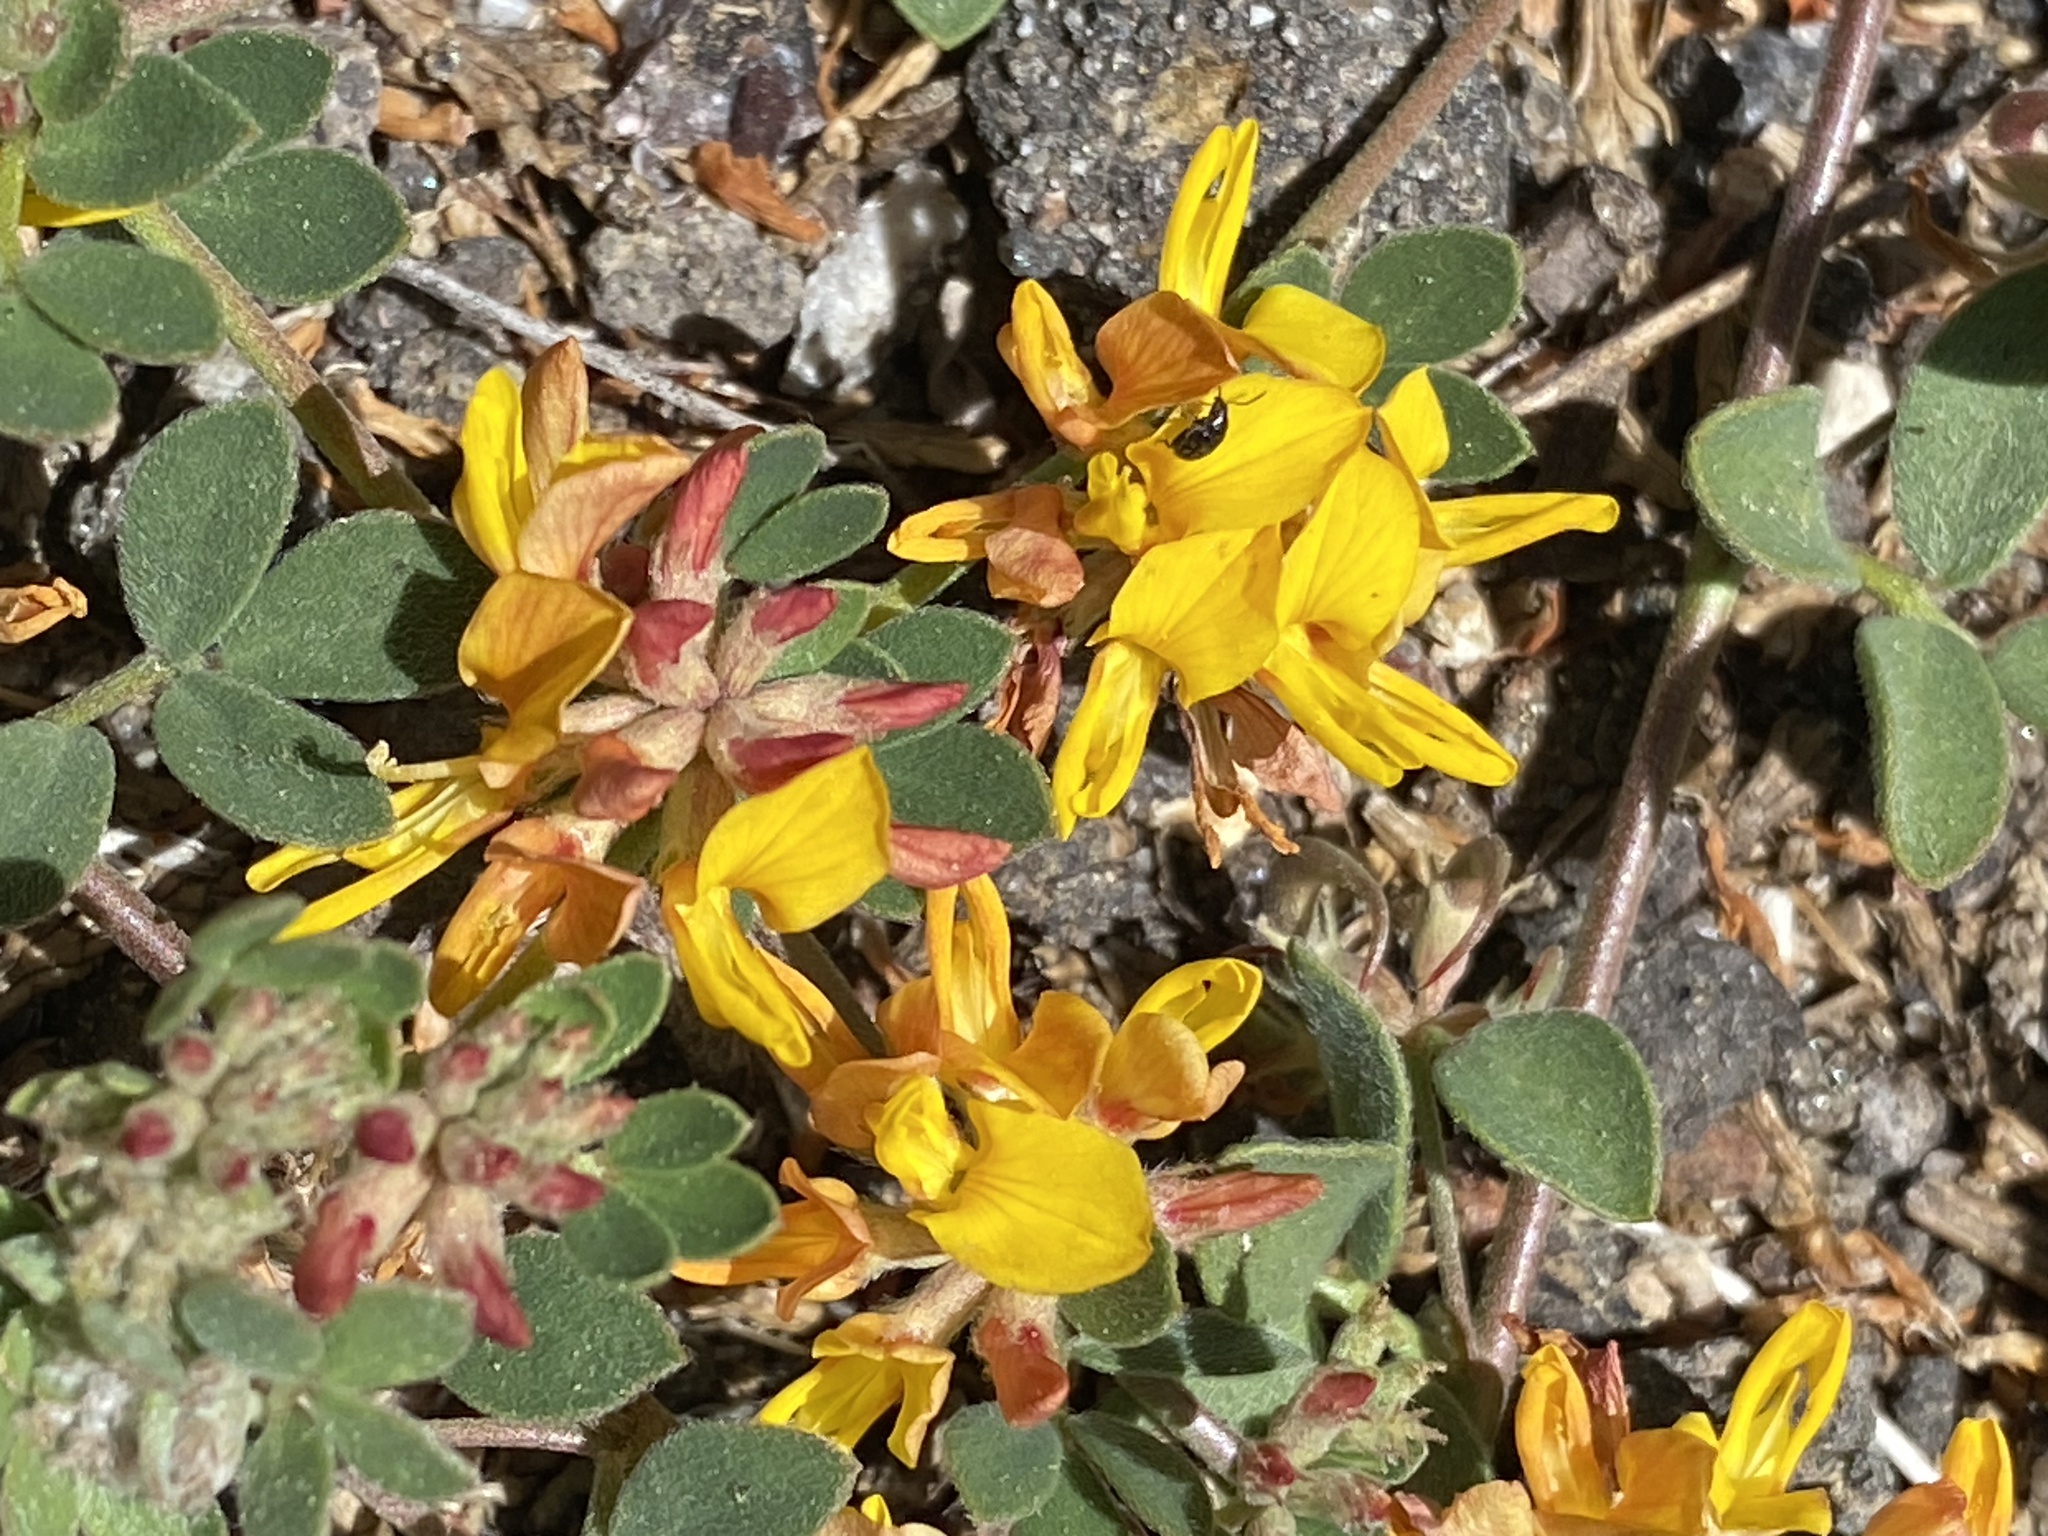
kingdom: Plantae
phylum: Tracheophyta
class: Magnoliopsida
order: Fabales
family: Fabaceae
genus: Acmispon
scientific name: Acmispon decumbens
